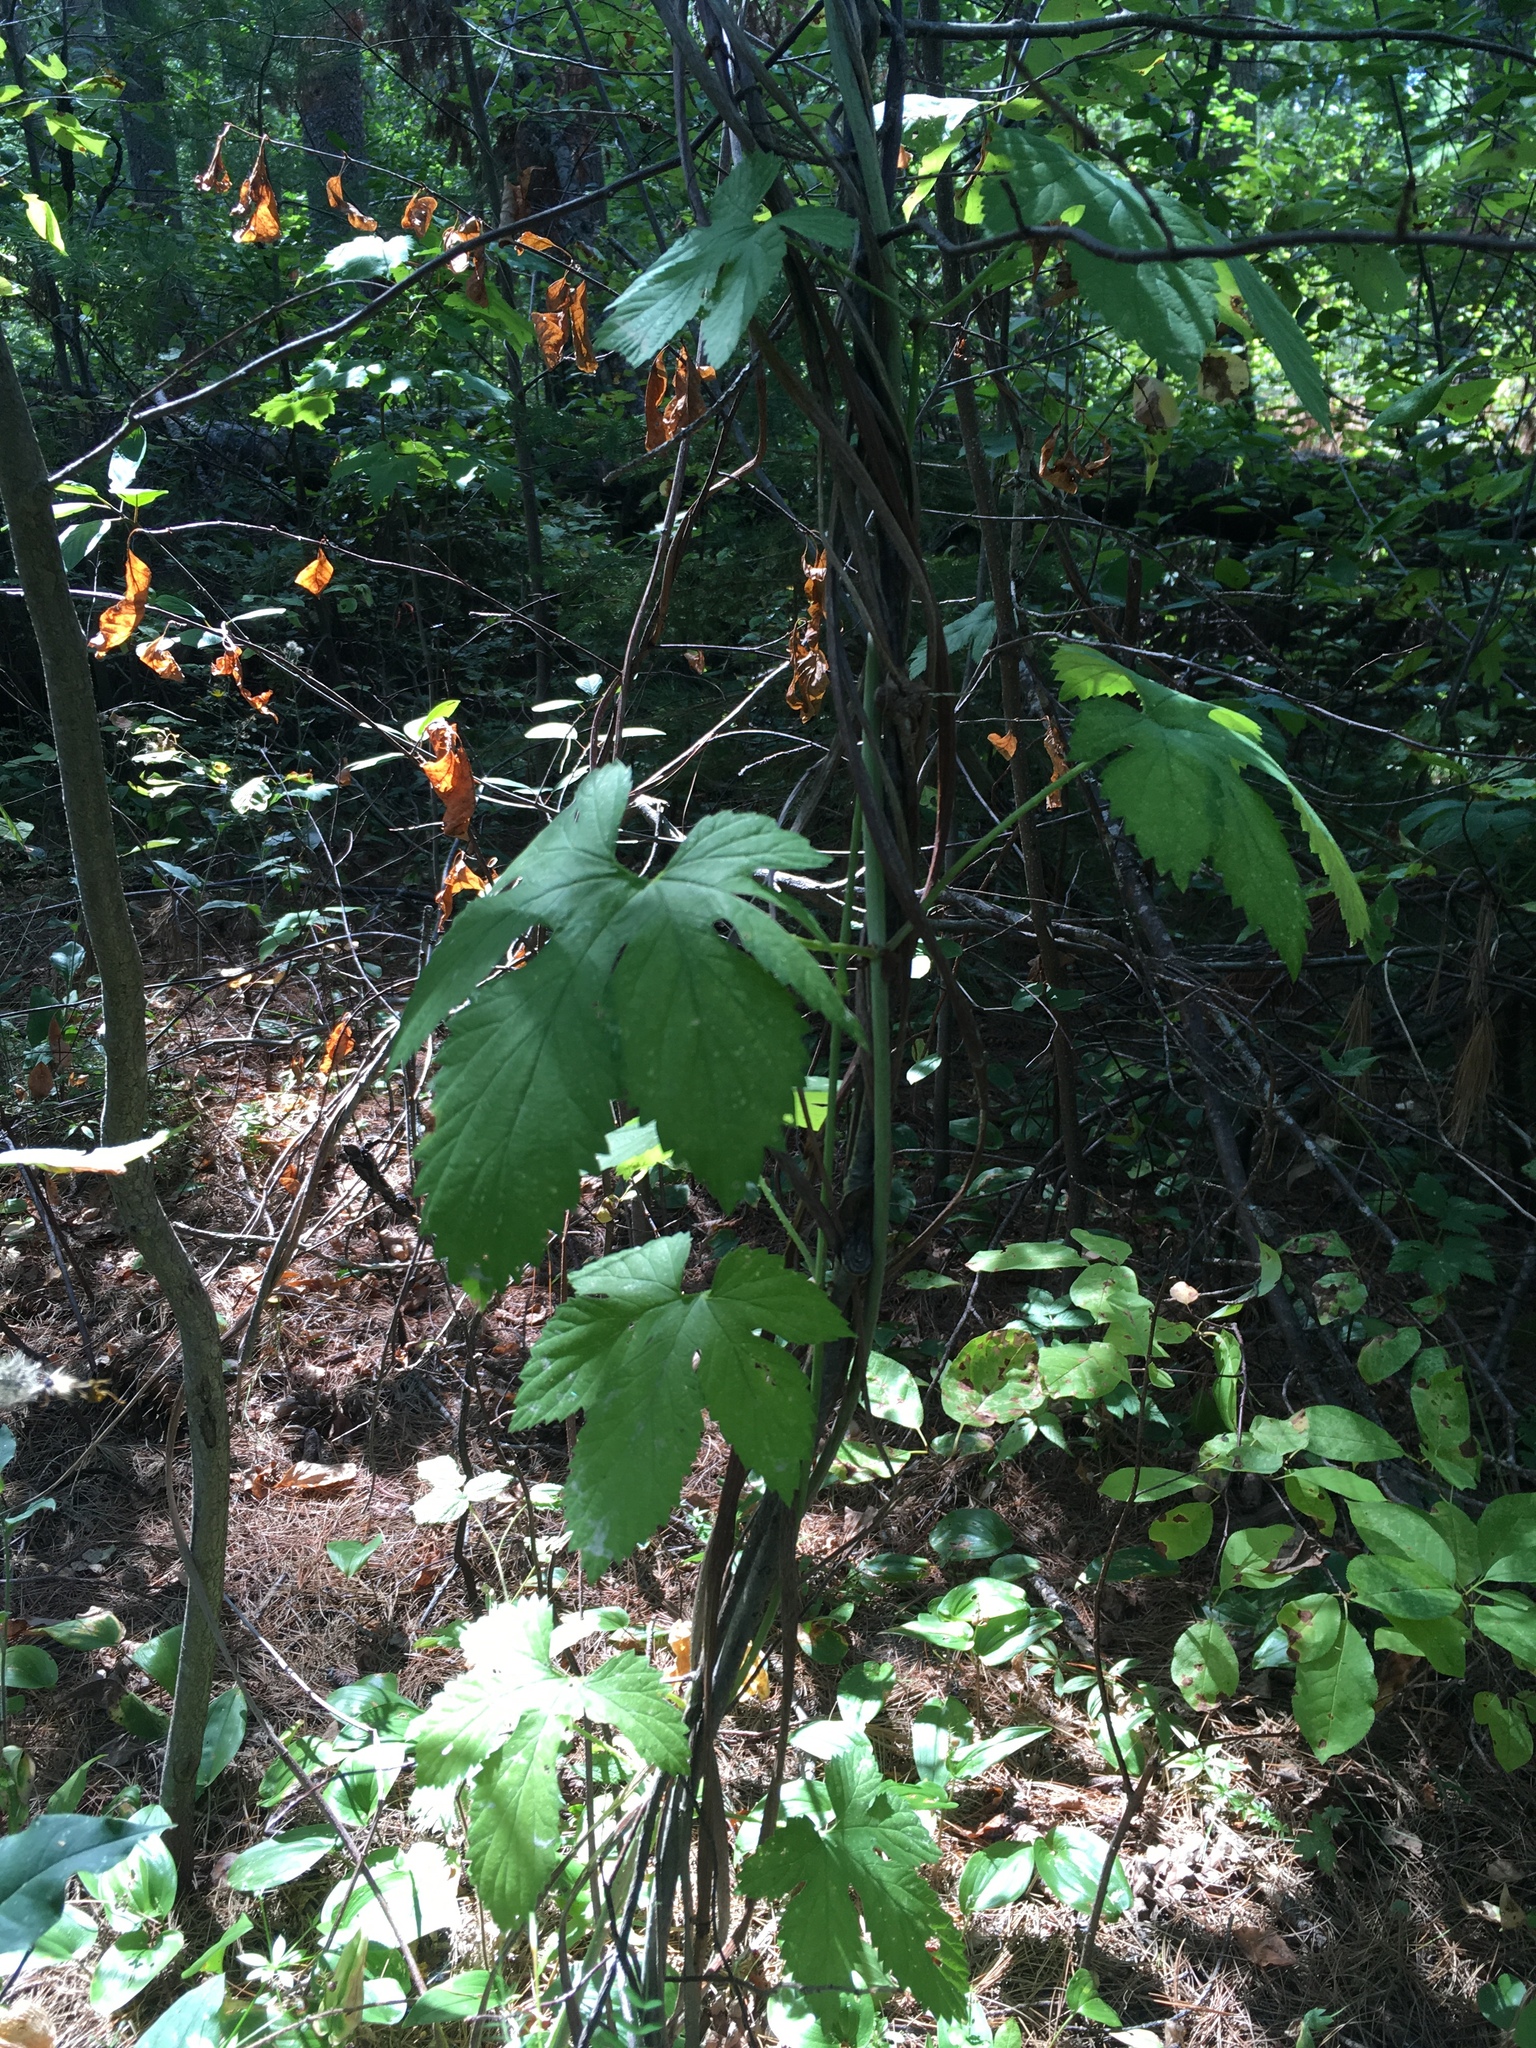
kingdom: Plantae
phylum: Tracheophyta
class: Magnoliopsida
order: Rosales
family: Cannabaceae
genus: Humulus
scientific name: Humulus lupulus
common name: Hop
